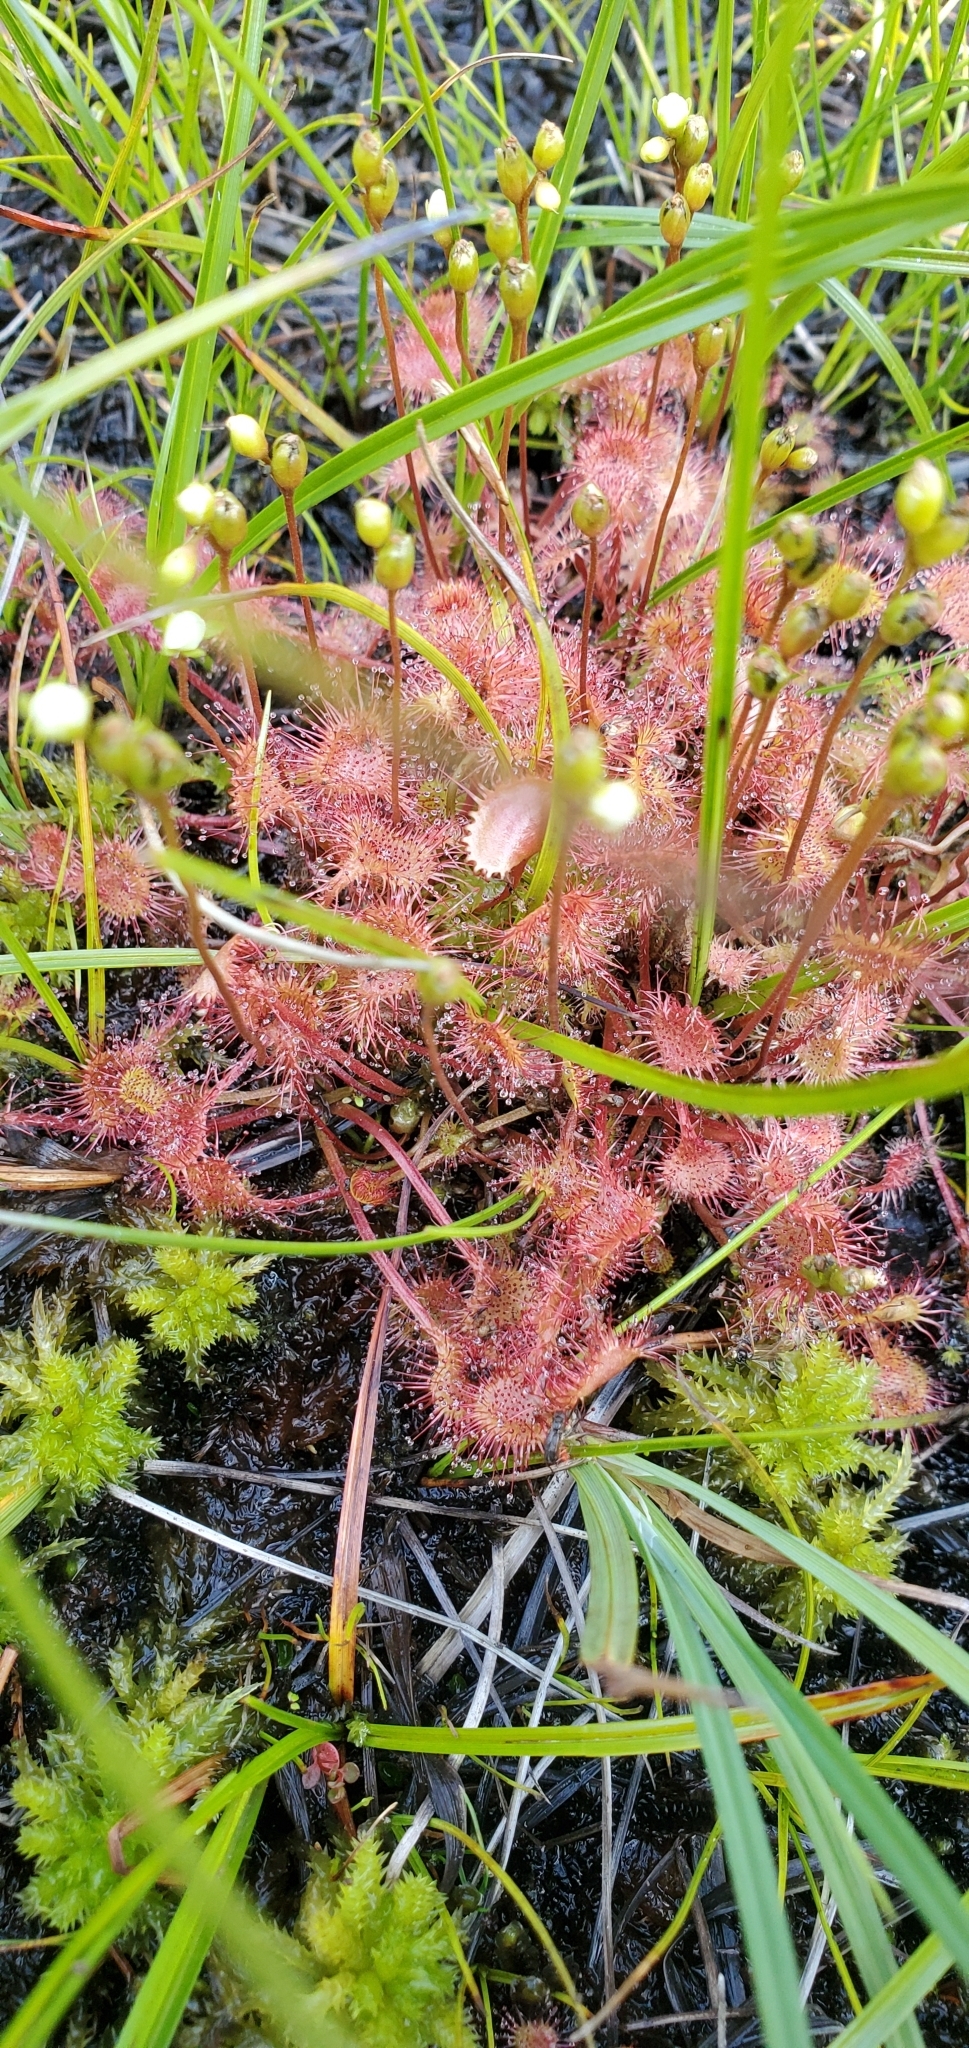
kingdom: Plantae
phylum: Tracheophyta
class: Magnoliopsida
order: Caryophyllales
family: Droseraceae
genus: Drosera
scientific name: Drosera rotundifolia
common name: Round-leaved sundew
